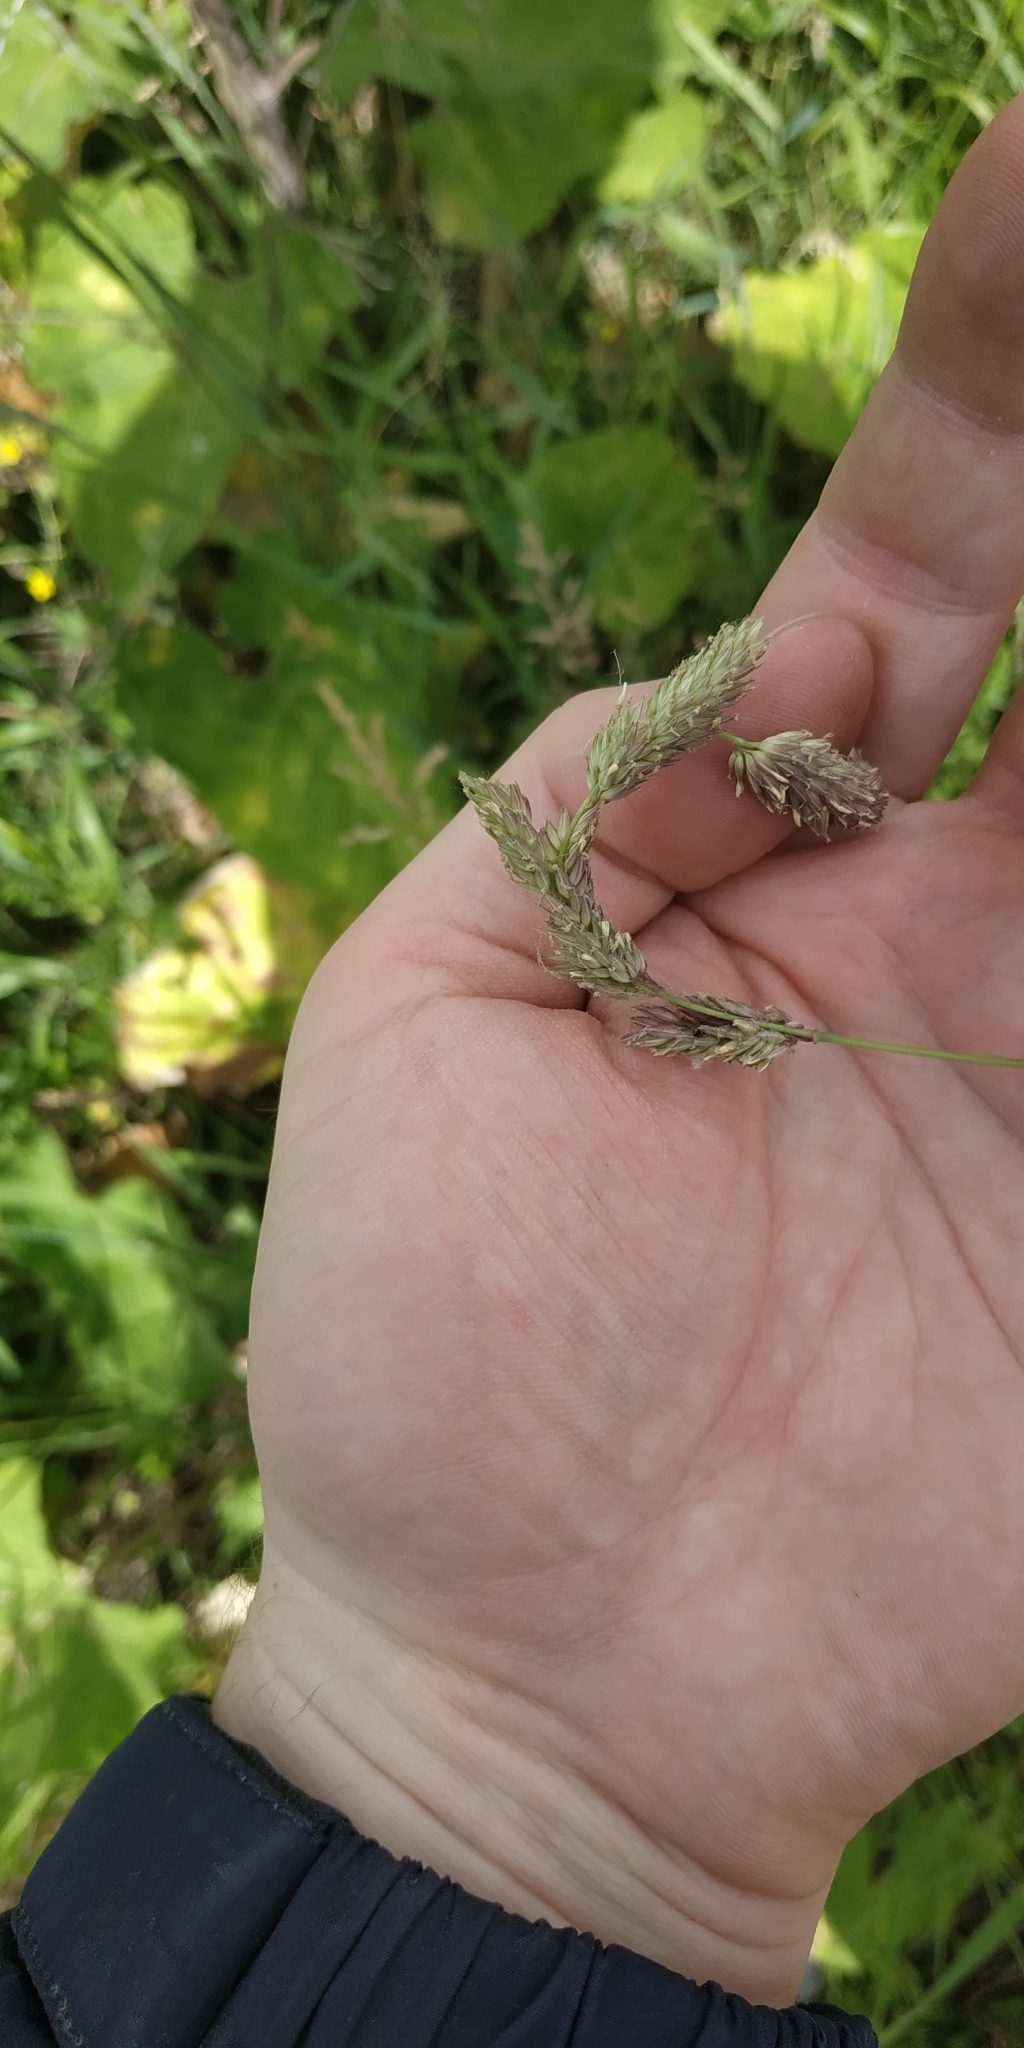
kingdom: Plantae
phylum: Tracheophyta
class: Liliopsida
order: Poales
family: Poaceae
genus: Phleum
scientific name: Phleum phleoides
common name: Purple-stem cat's-tail
